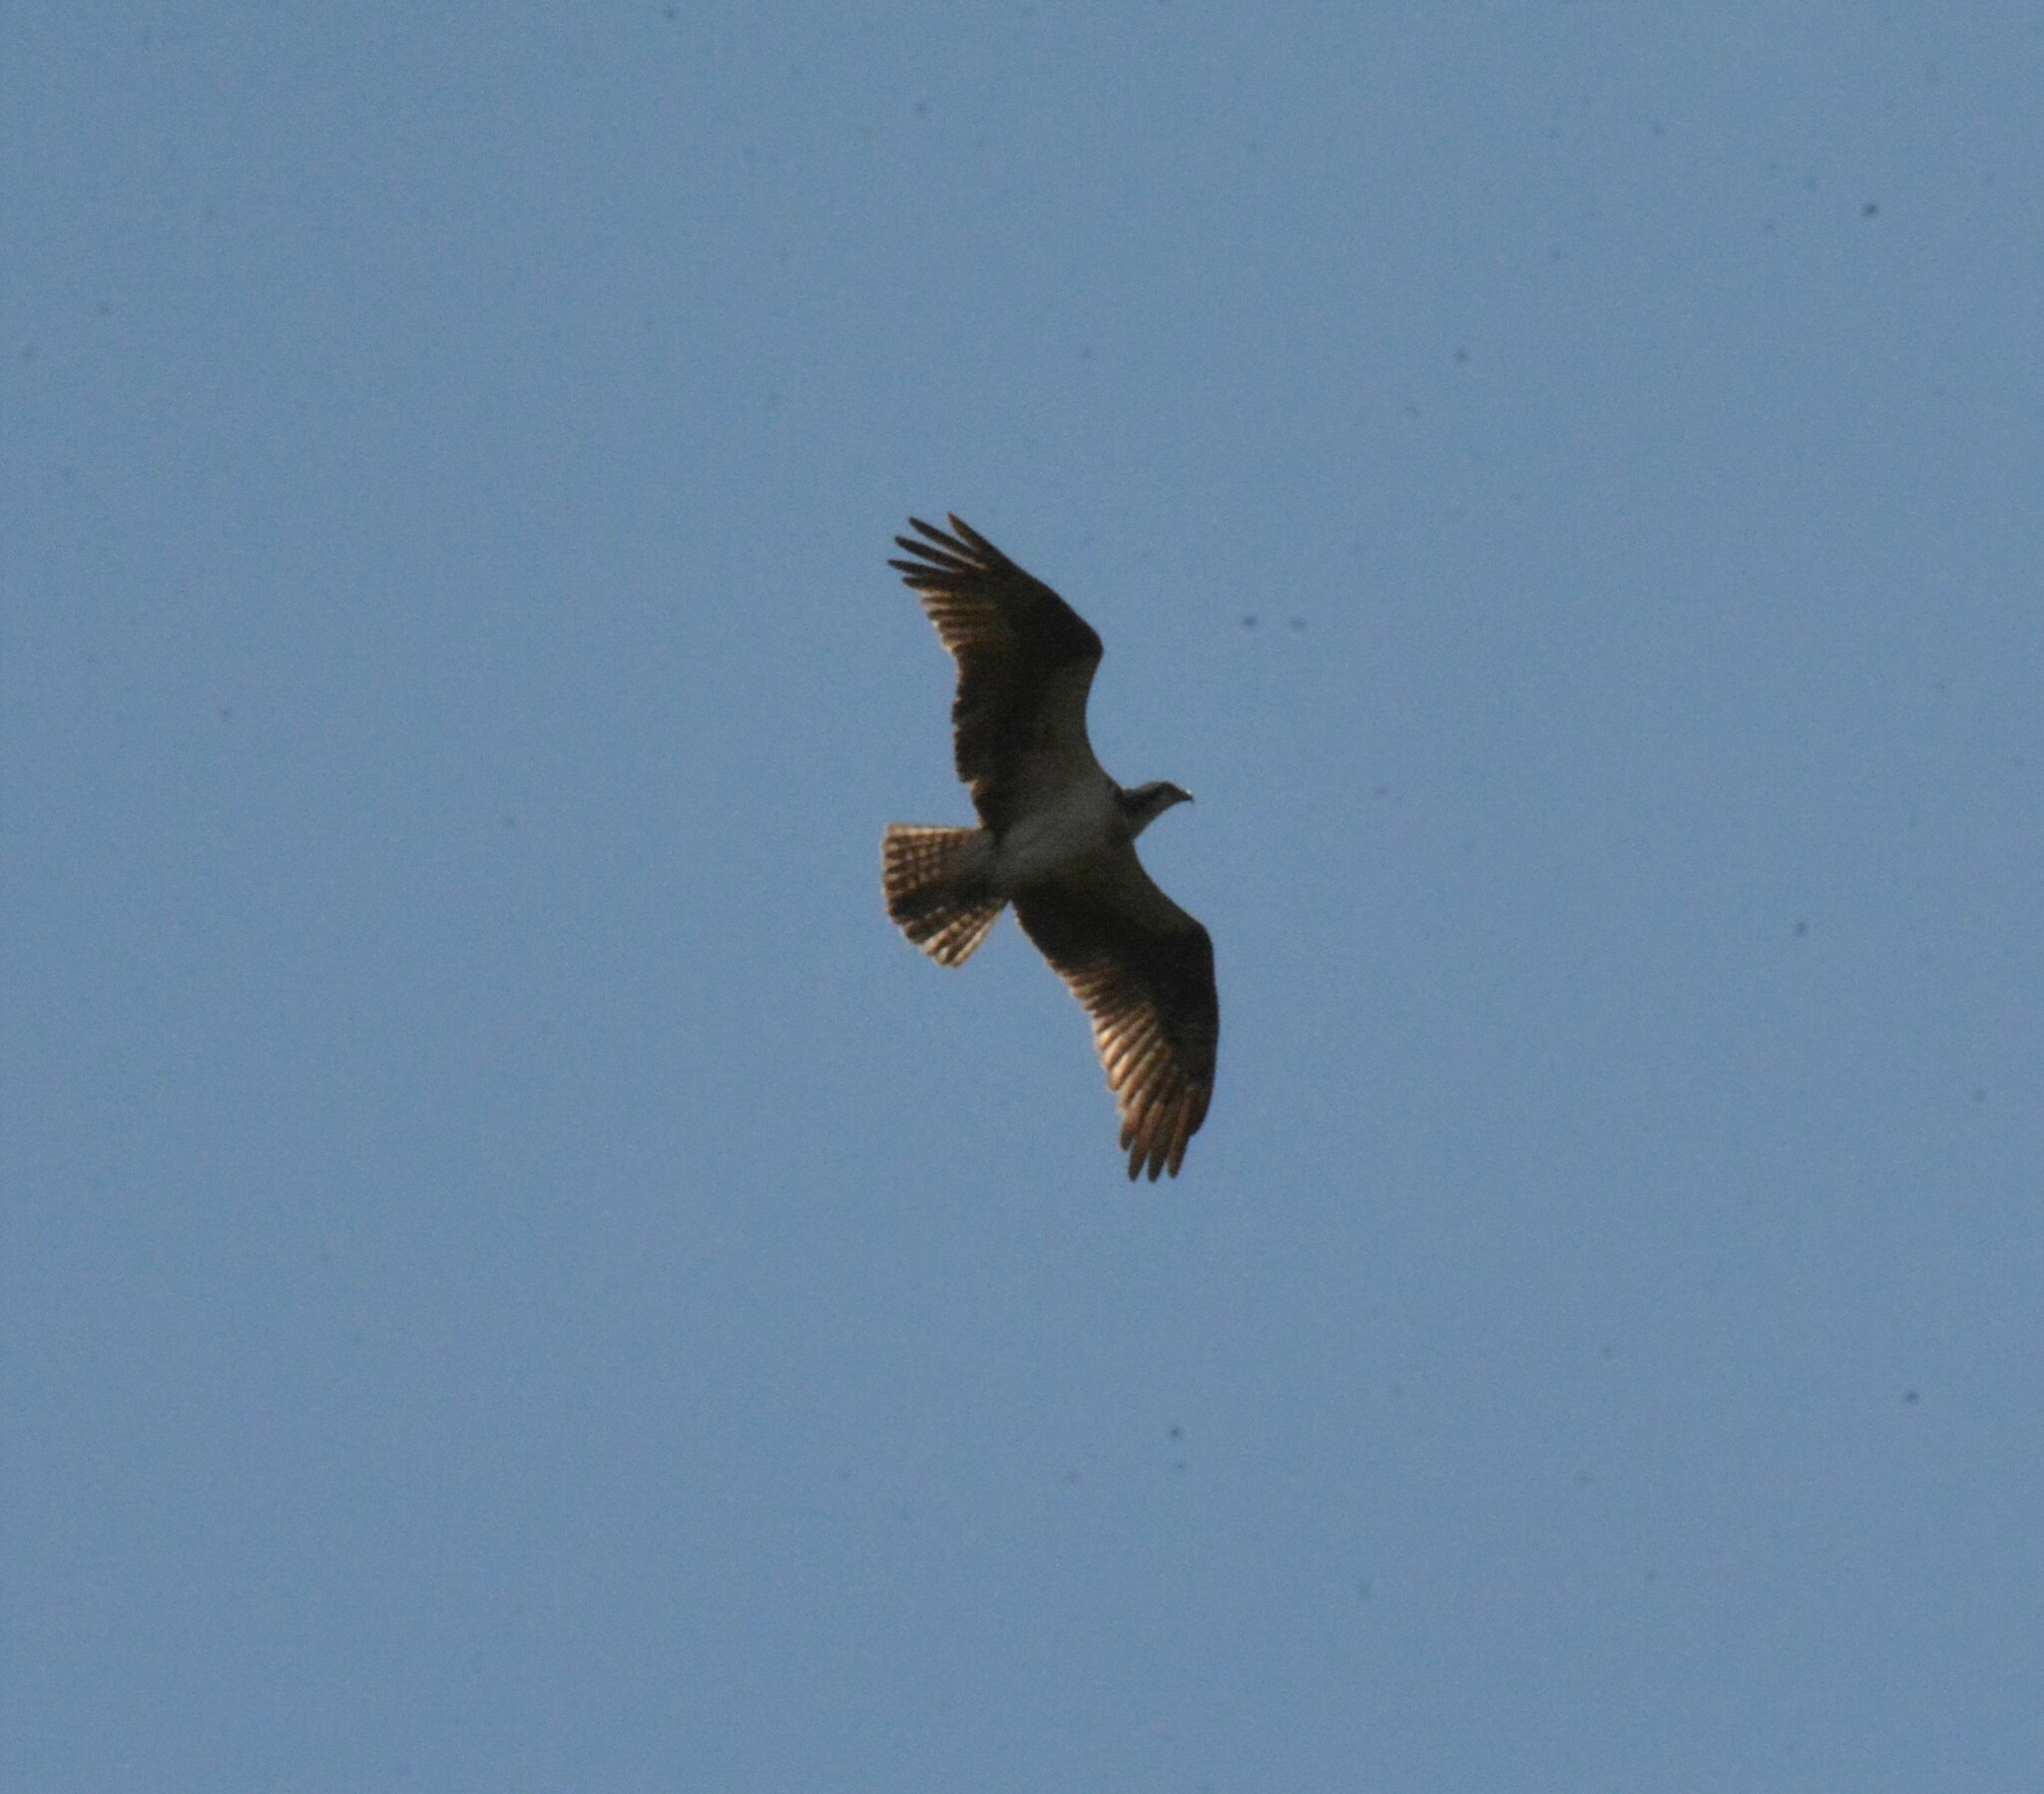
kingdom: Animalia
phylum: Chordata
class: Aves
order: Accipitriformes
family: Pandionidae
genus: Pandion
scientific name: Pandion haliaetus
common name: Osprey
